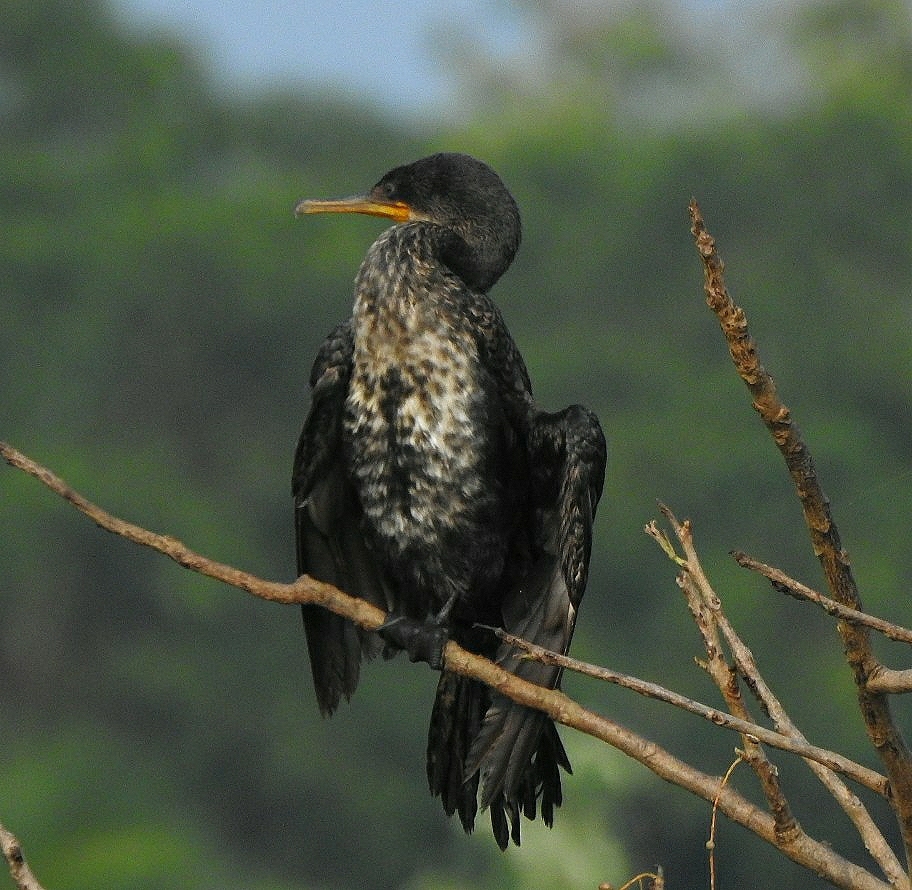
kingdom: Animalia
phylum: Chordata
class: Aves
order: Suliformes
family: Phalacrocoracidae
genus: Phalacrocorax
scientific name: Phalacrocorax fuscicollis
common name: Indian cormorant
